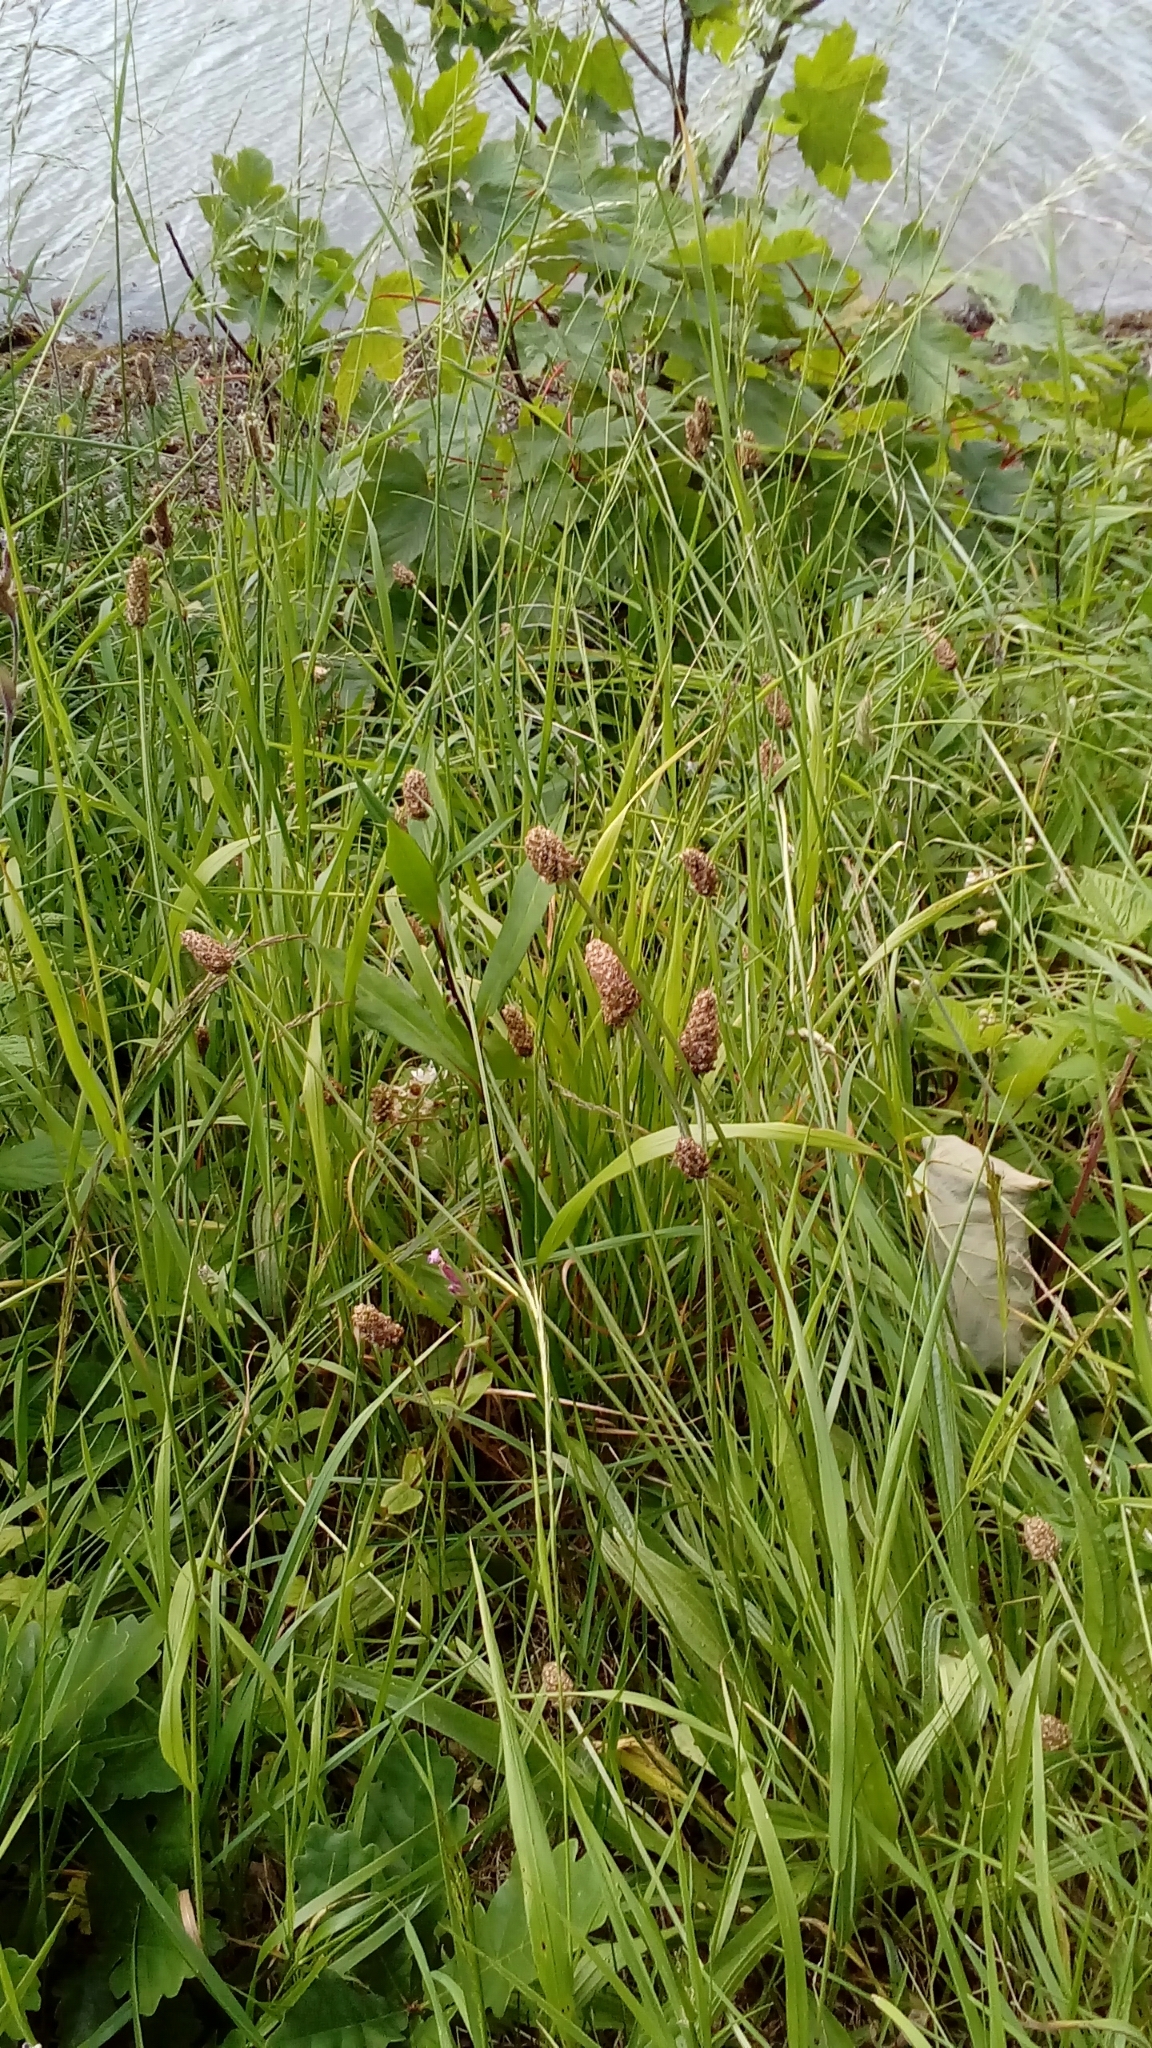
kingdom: Plantae
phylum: Tracheophyta
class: Magnoliopsida
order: Lamiales
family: Plantaginaceae
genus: Plantago
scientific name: Plantago lanceolata
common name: Ribwort plantain
